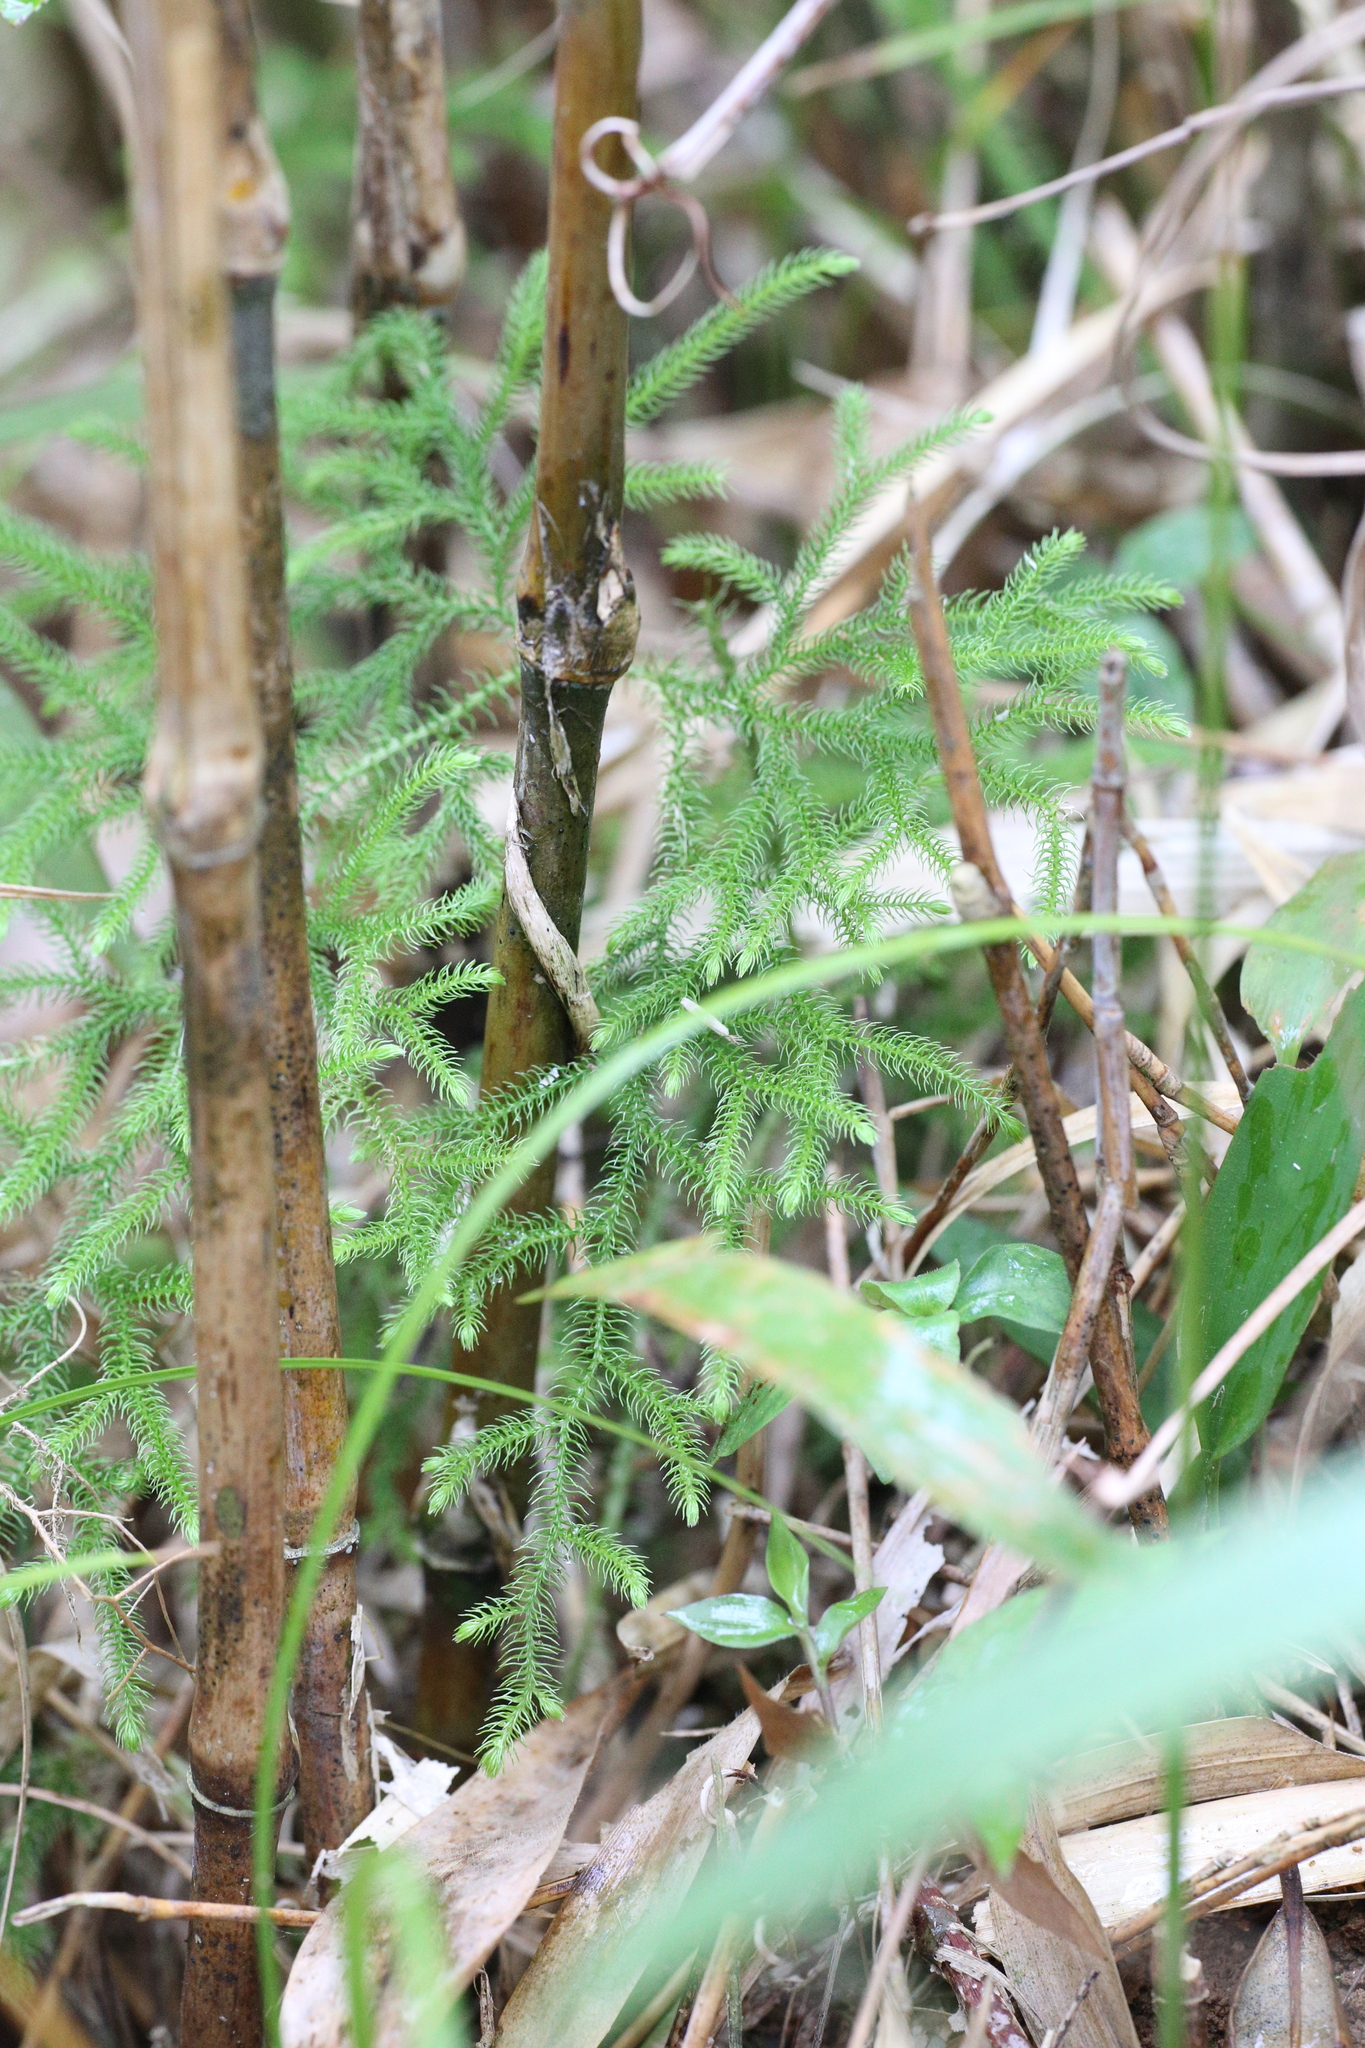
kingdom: Plantae
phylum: Tracheophyta
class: Lycopodiopsida
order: Lycopodiales
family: Lycopodiaceae
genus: Palhinhaea
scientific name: Palhinhaea cernua
